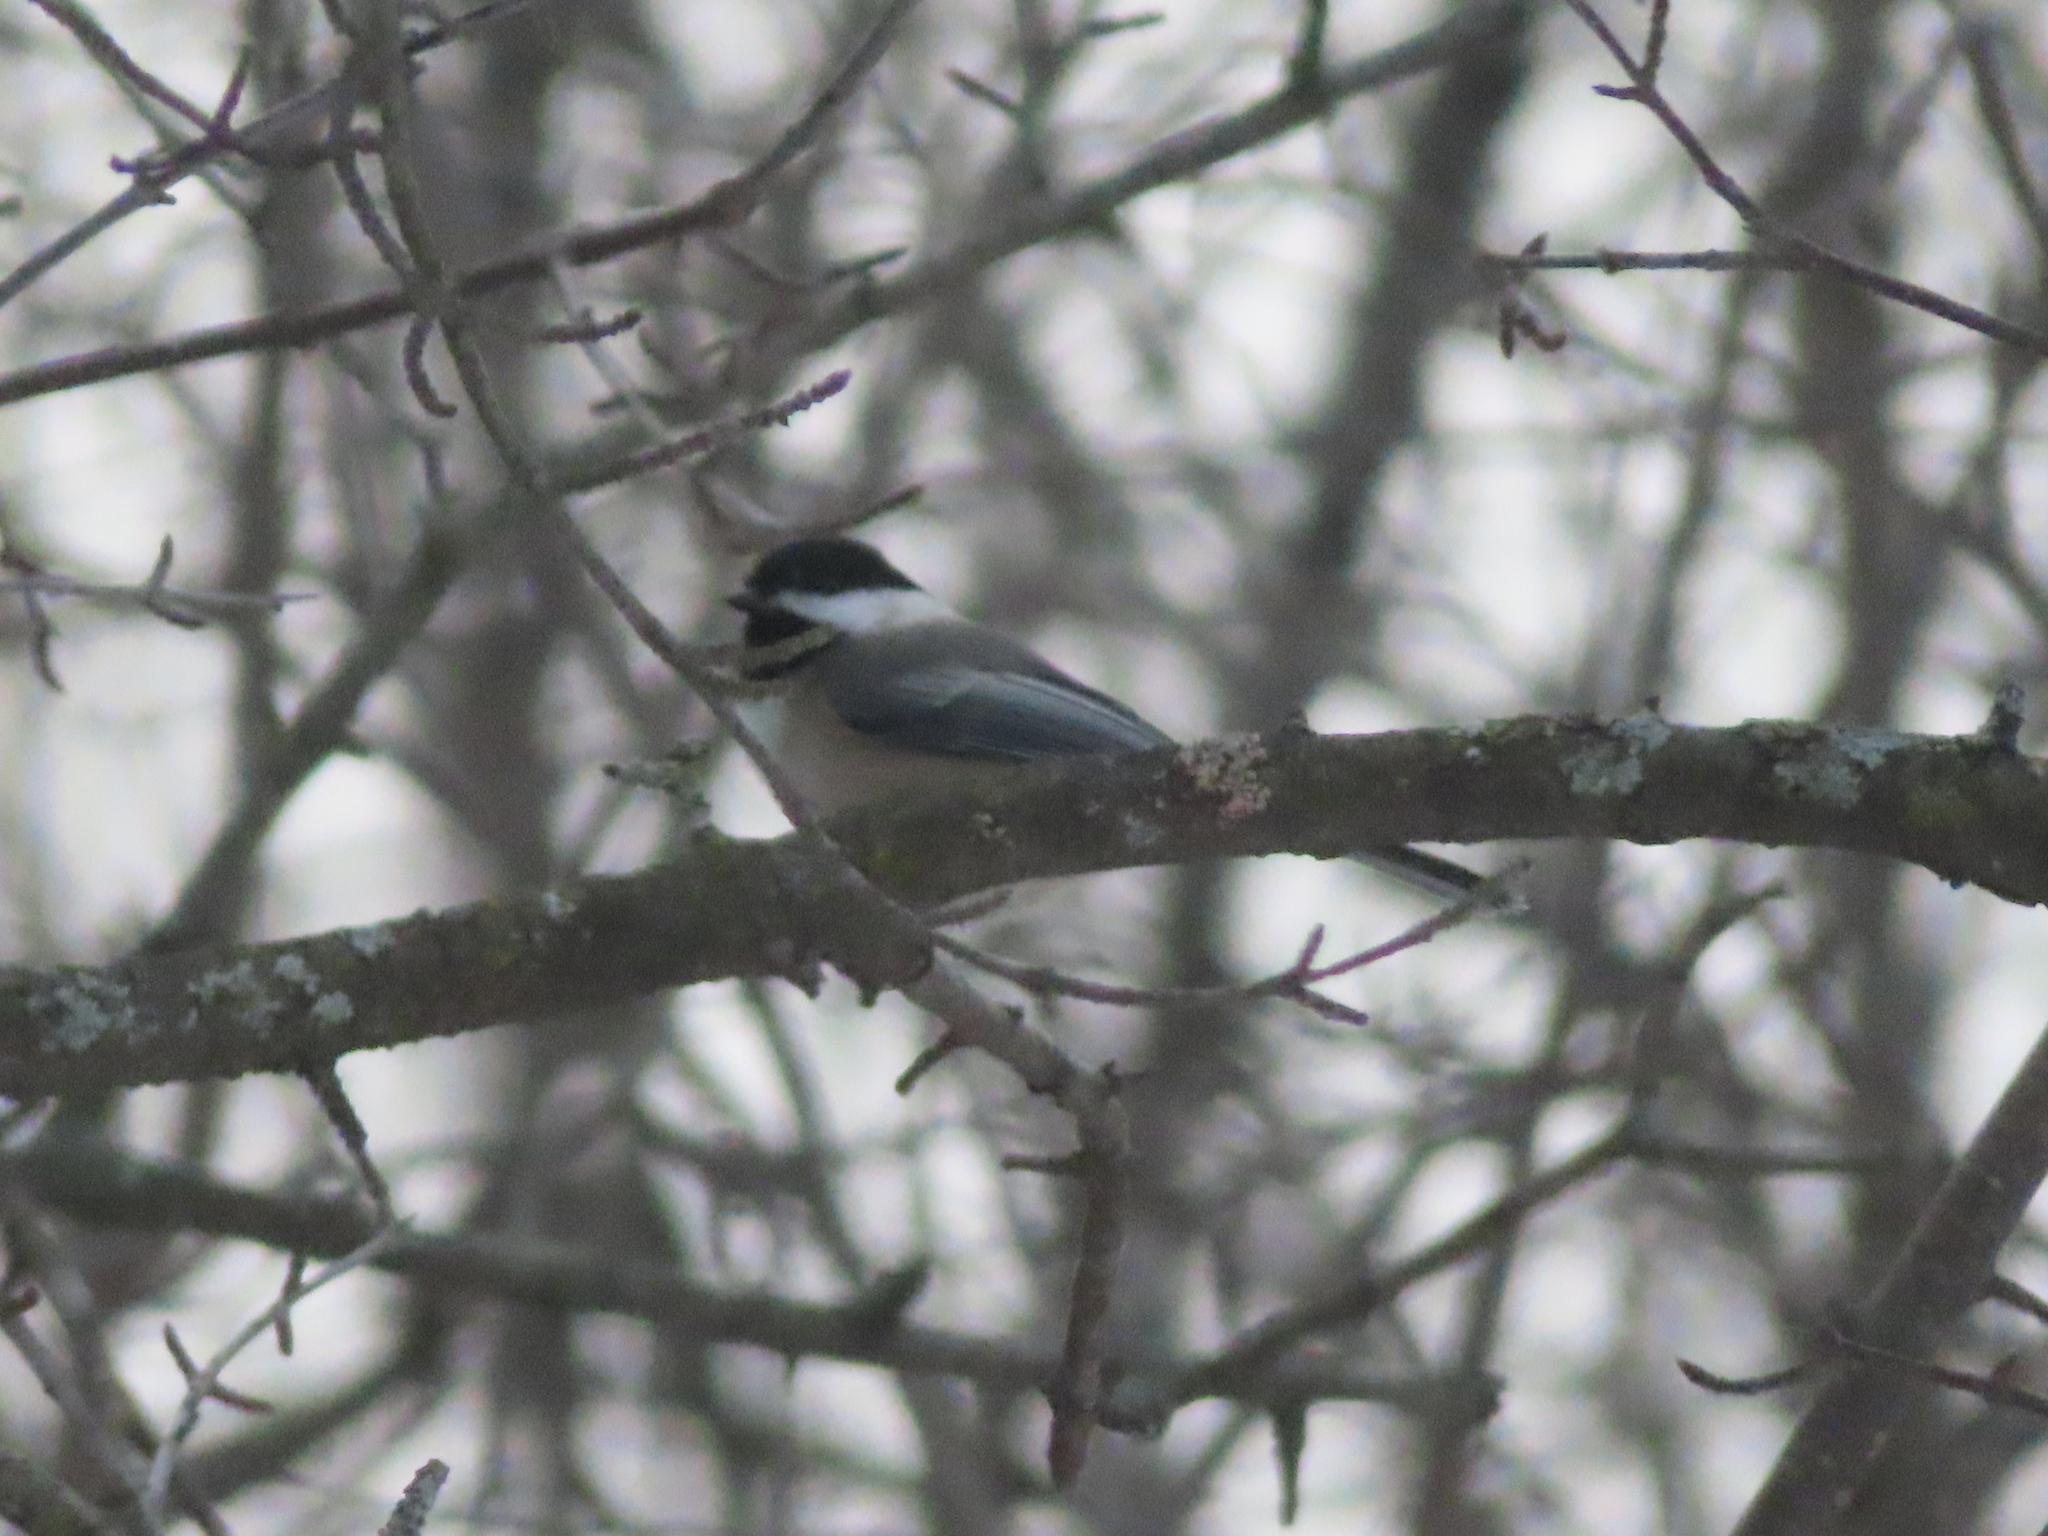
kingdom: Animalia
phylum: Chordata
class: Aves
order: Passeriformes
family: Paridae
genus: Poecile
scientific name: Poecile atricapillus
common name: Black-capped chickadee
